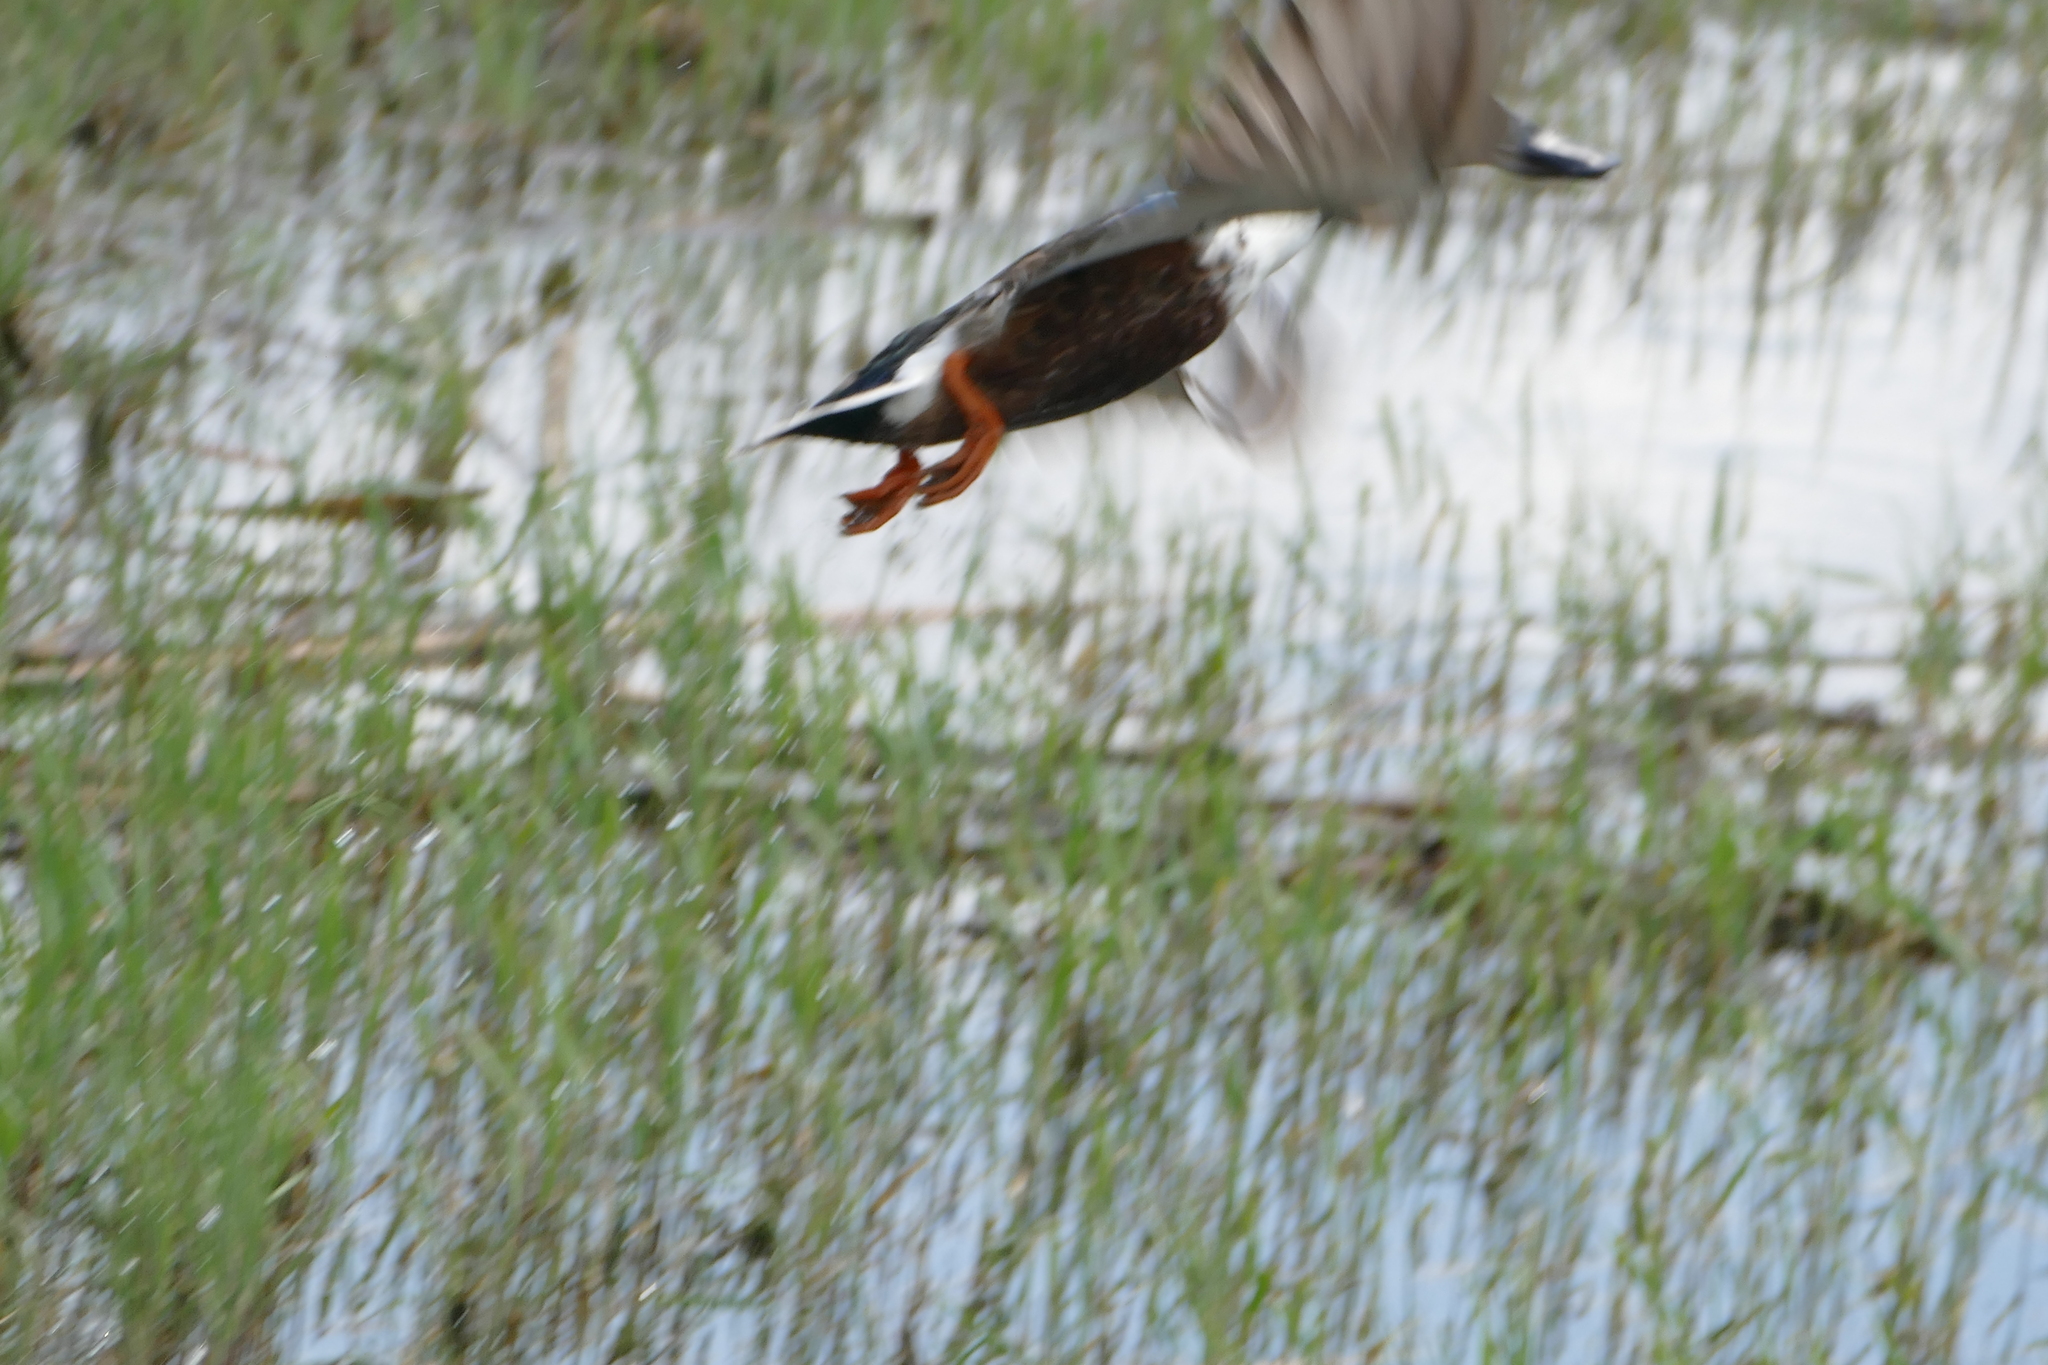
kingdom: Animalia
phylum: Chordata
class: Aves
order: Anseriformes
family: Anatidae
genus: Spatula
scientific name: Spatula clypeata
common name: Northern shoveler
